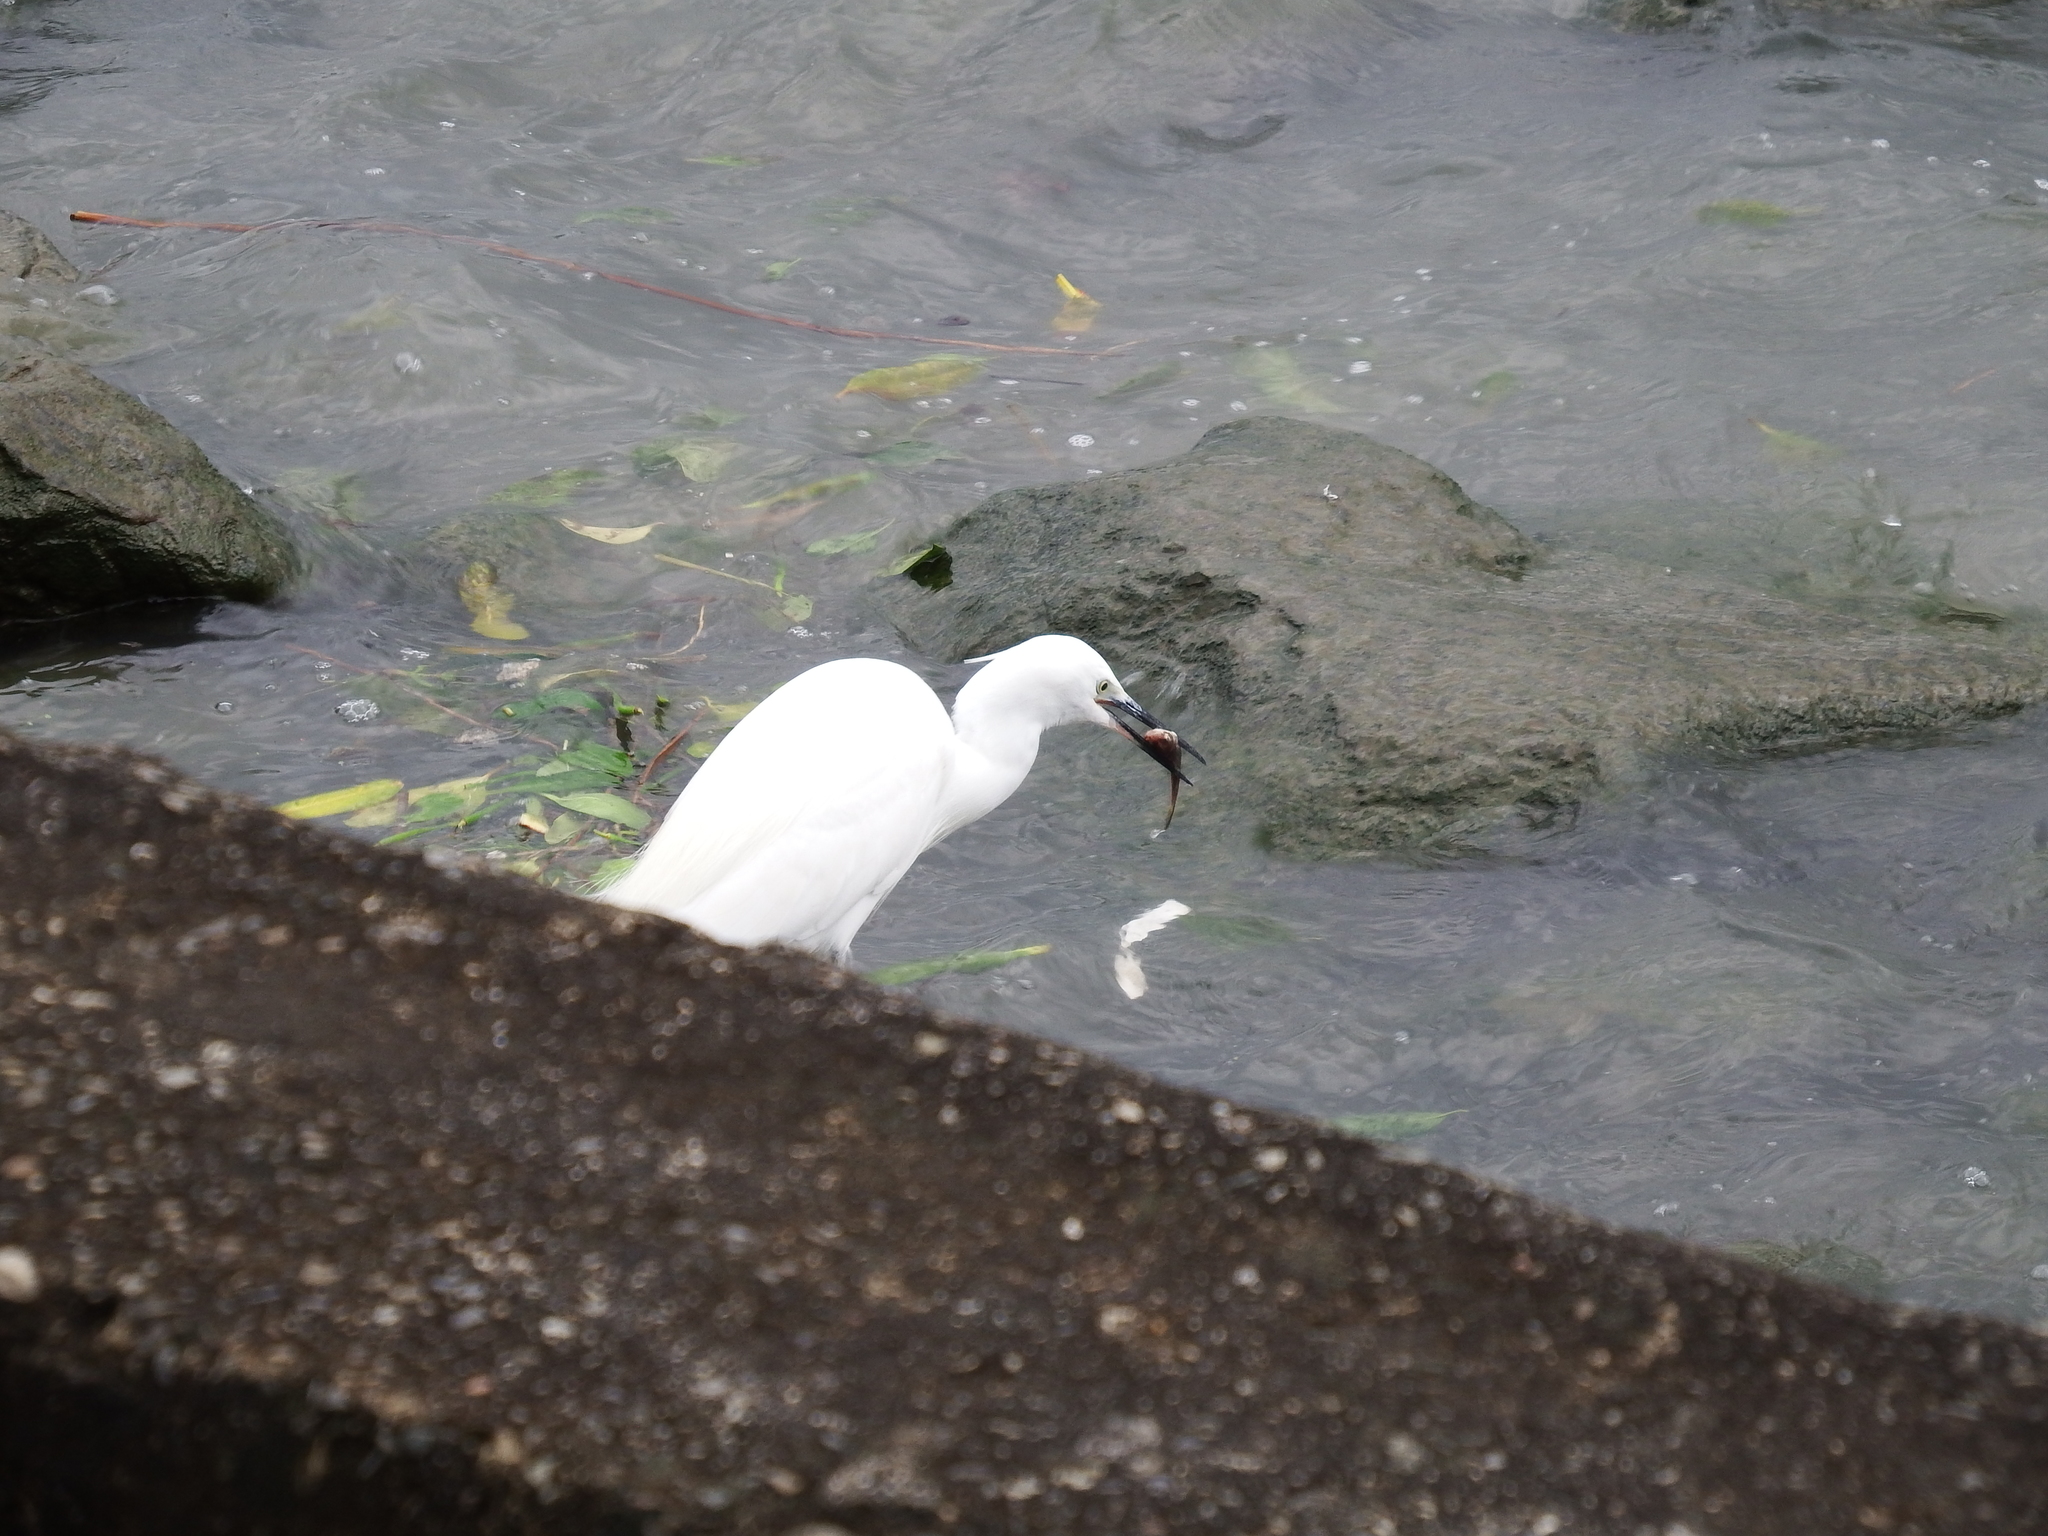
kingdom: Animalia
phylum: Chordata
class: Aves
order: Pelecaniformes
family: Ardeidae
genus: Egretta
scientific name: Egretta garzetta
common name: Little egret
